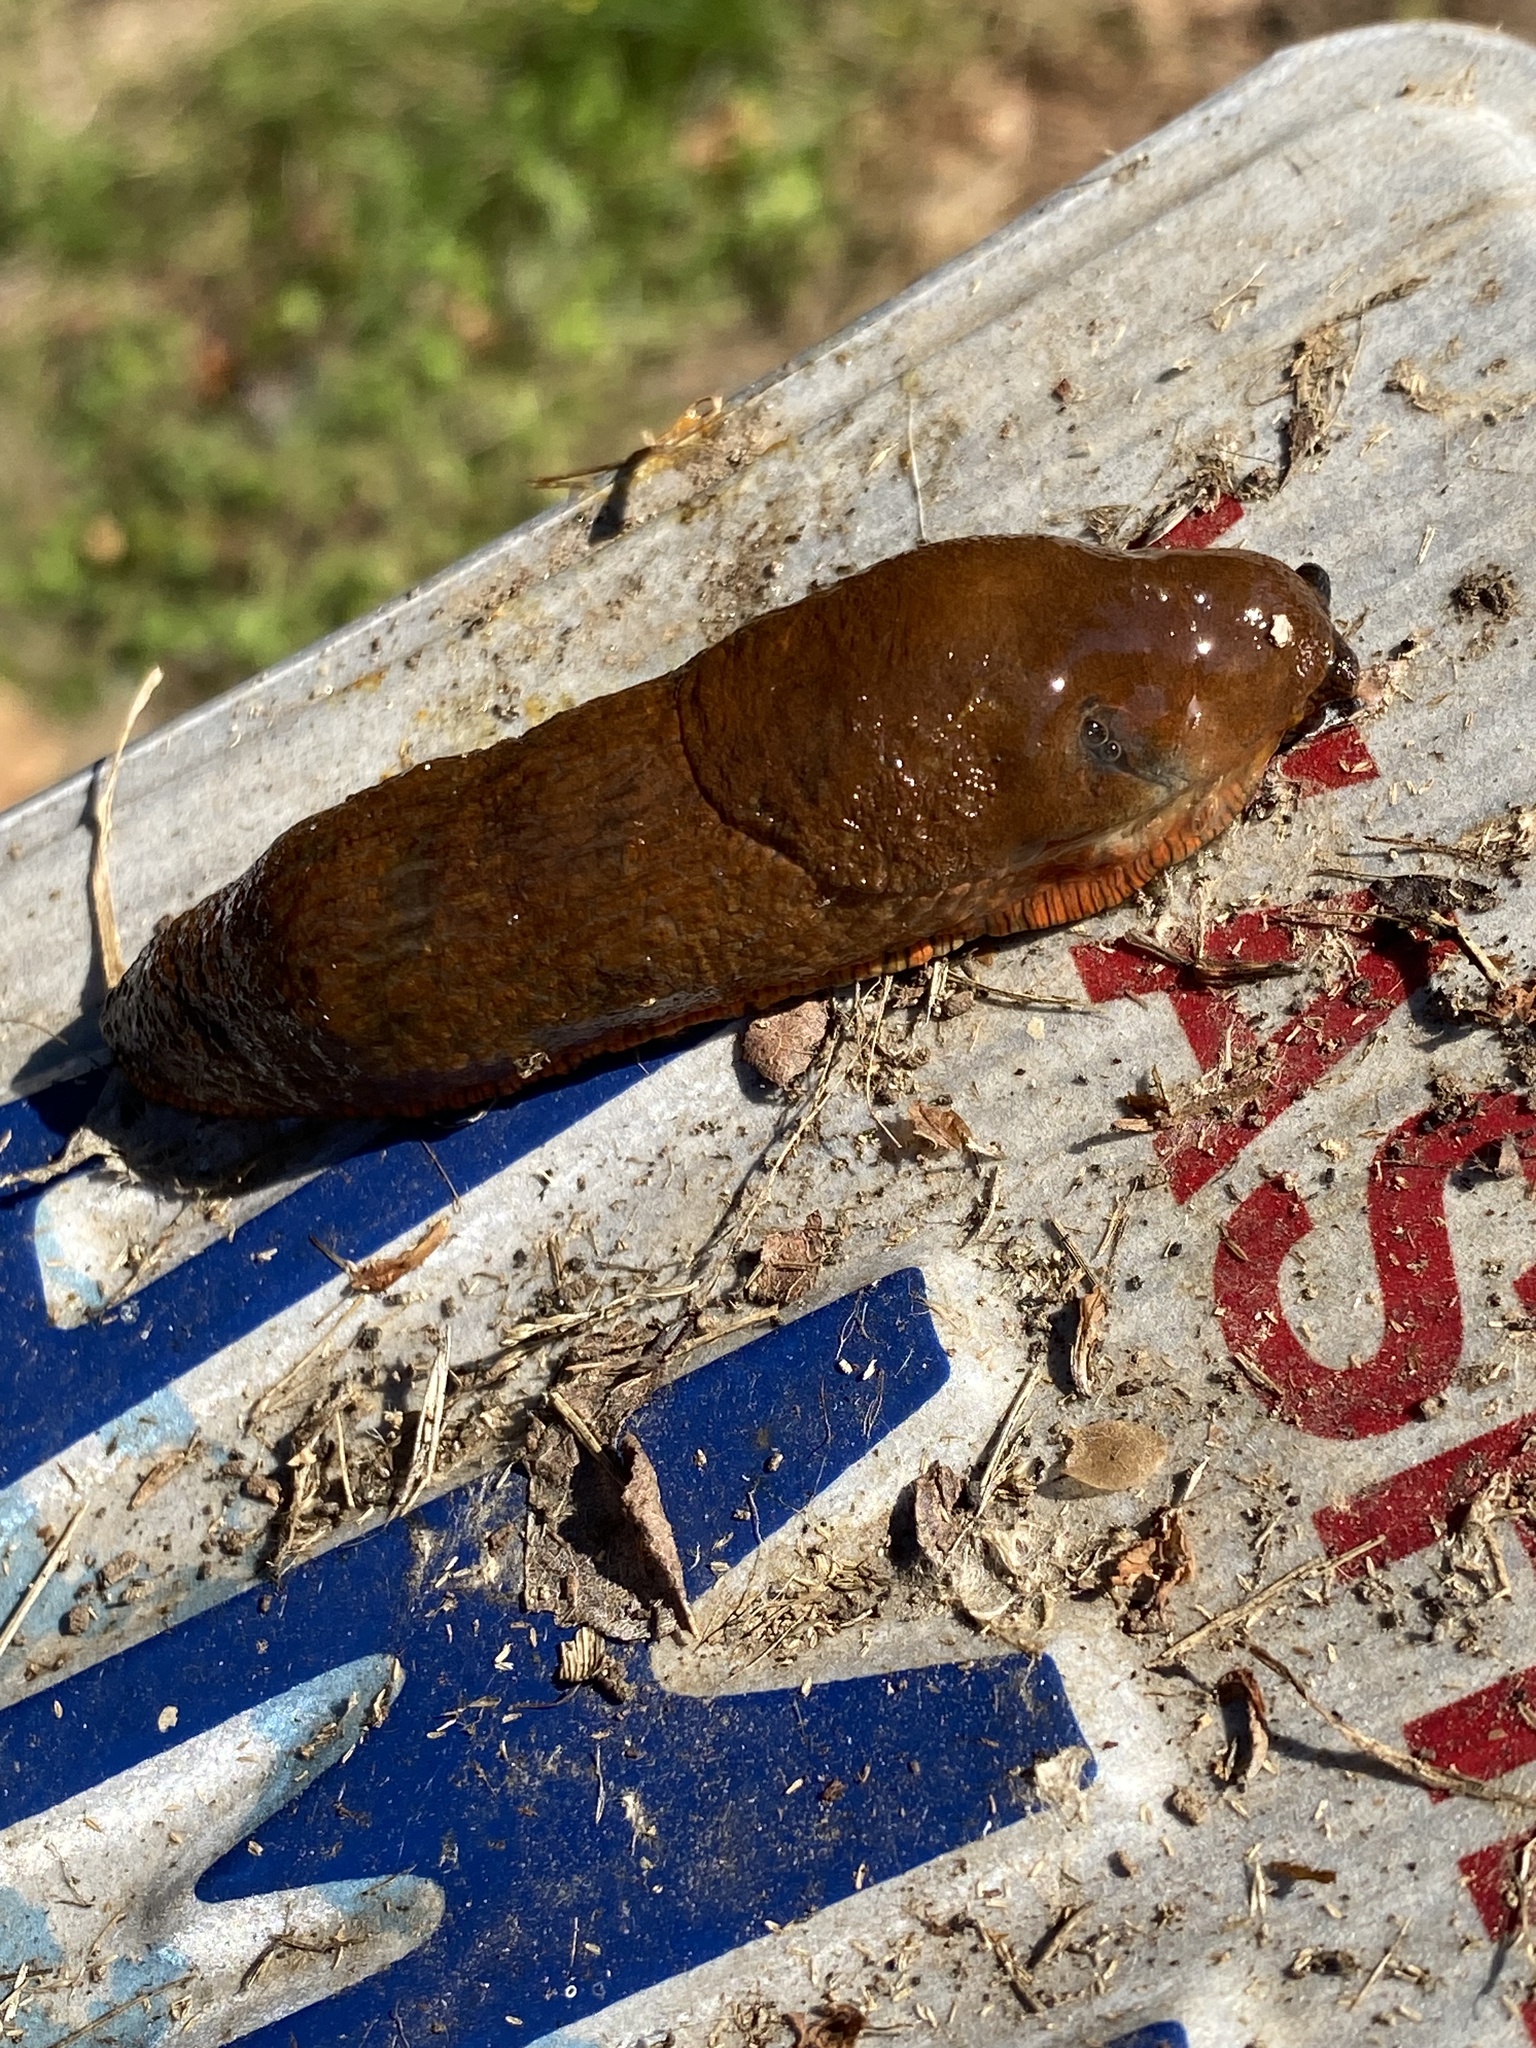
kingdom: Animalia
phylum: Mollusca
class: Gastropoda
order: Stylommatophora
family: Arionidae
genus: Arion
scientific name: Arion
